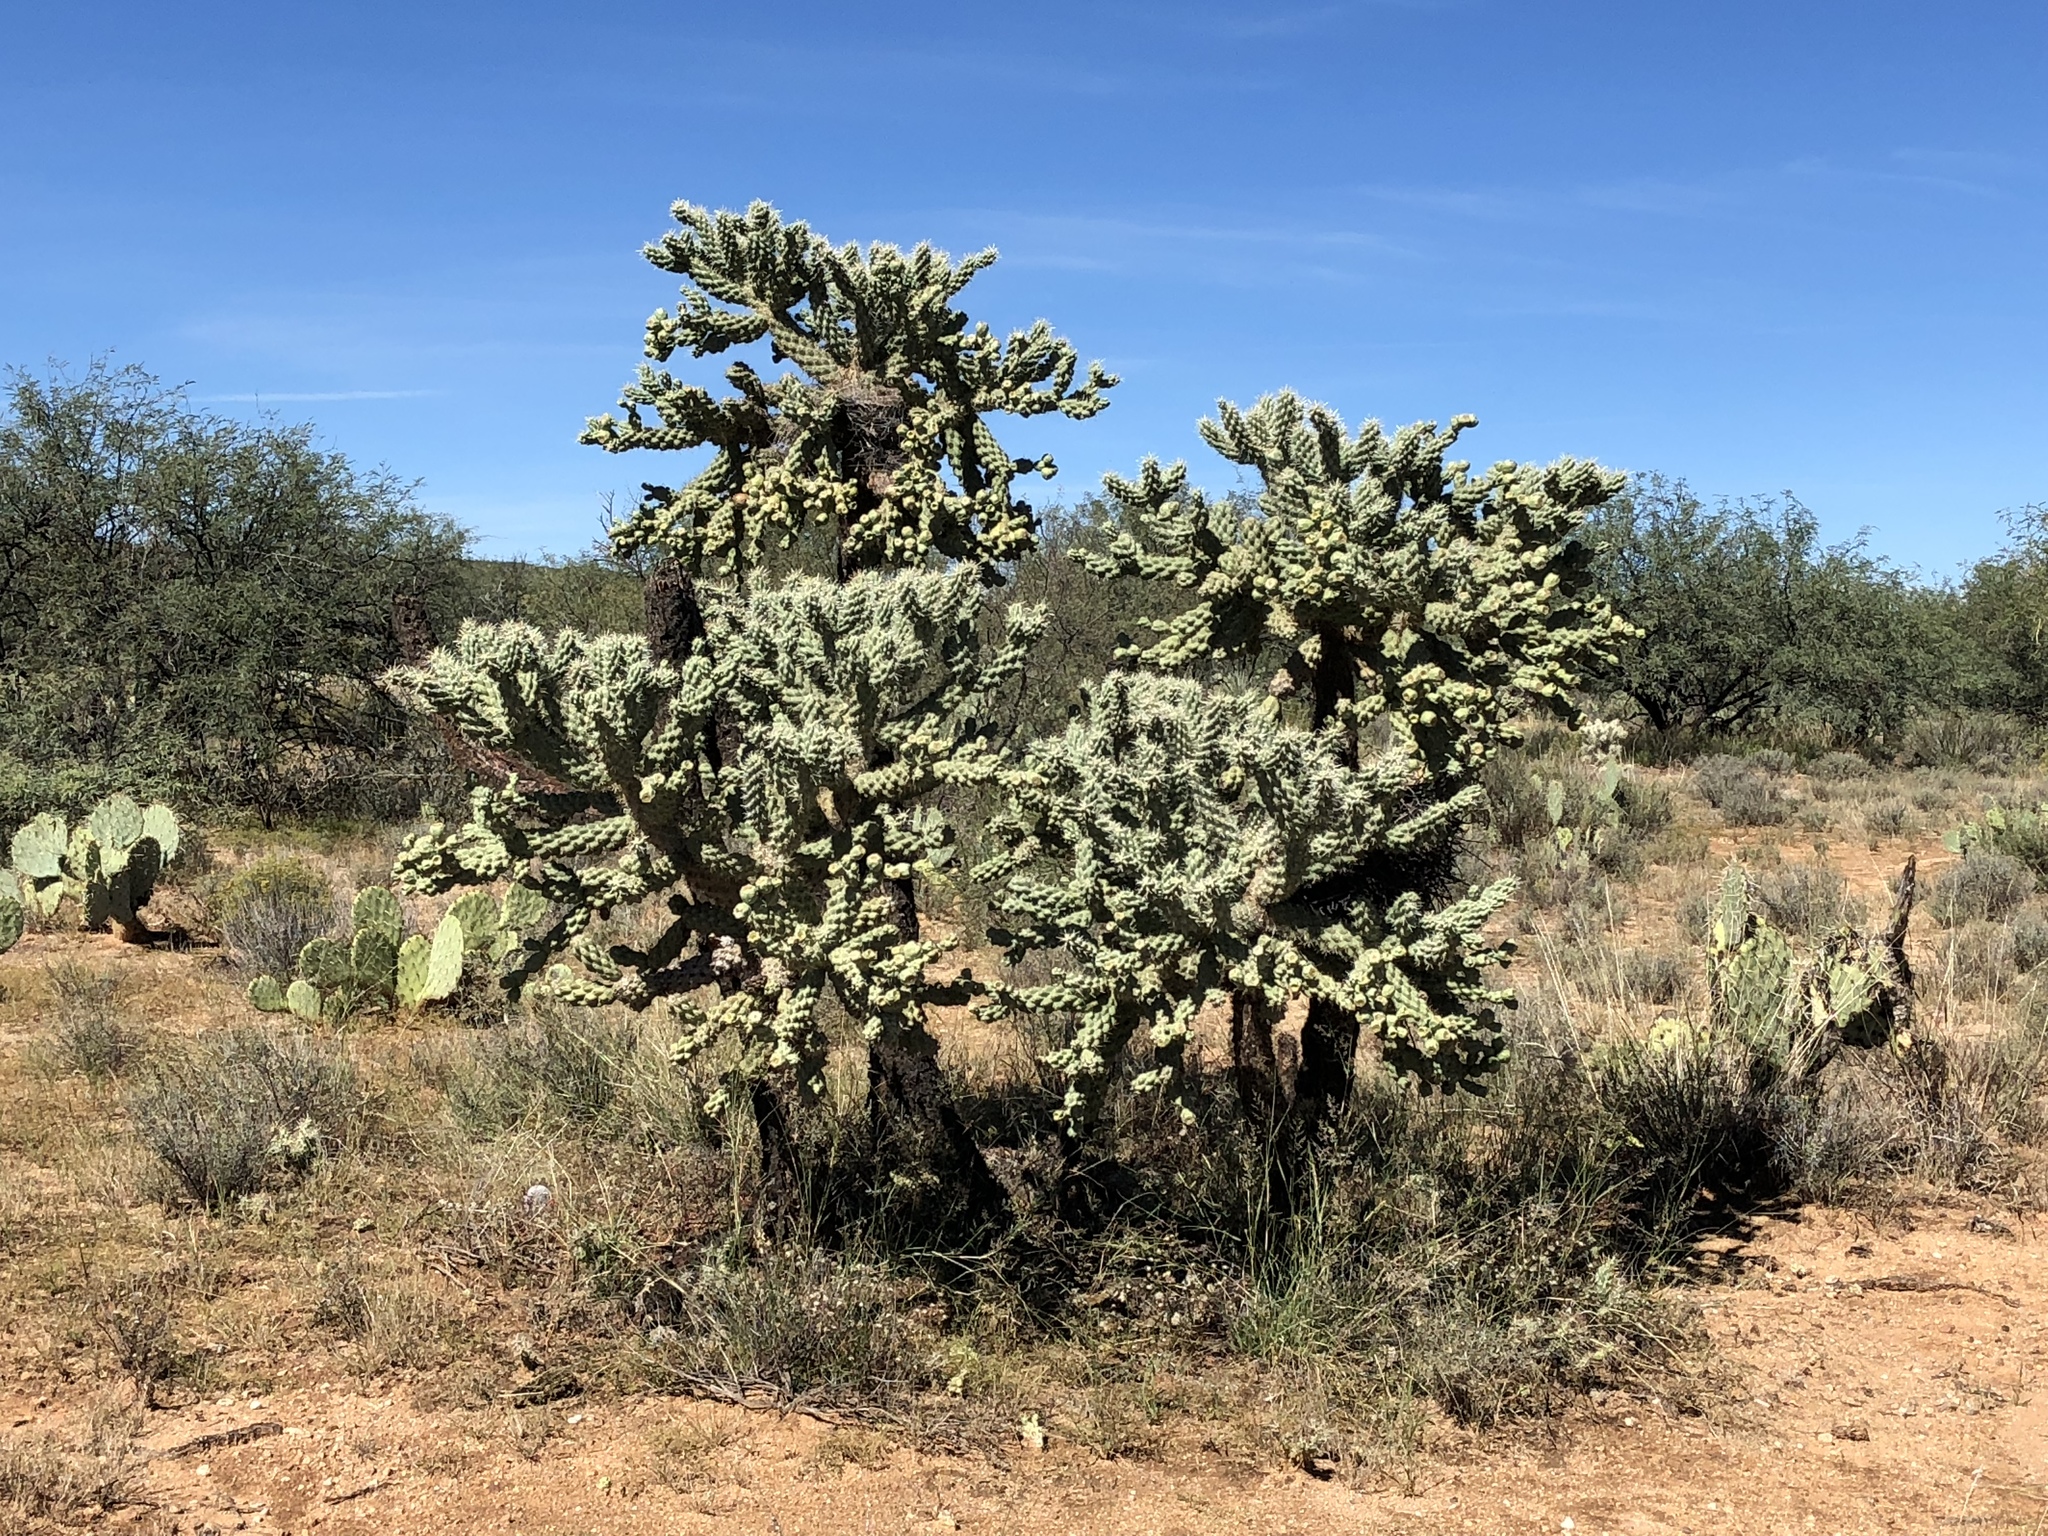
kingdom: Plantae
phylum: Tracheophyta
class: Magnoliopsida
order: Caryophyllales
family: Cactaceae
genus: Cylindropuntia
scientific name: Cylindropuntia fulgida
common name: Jumping cholla
